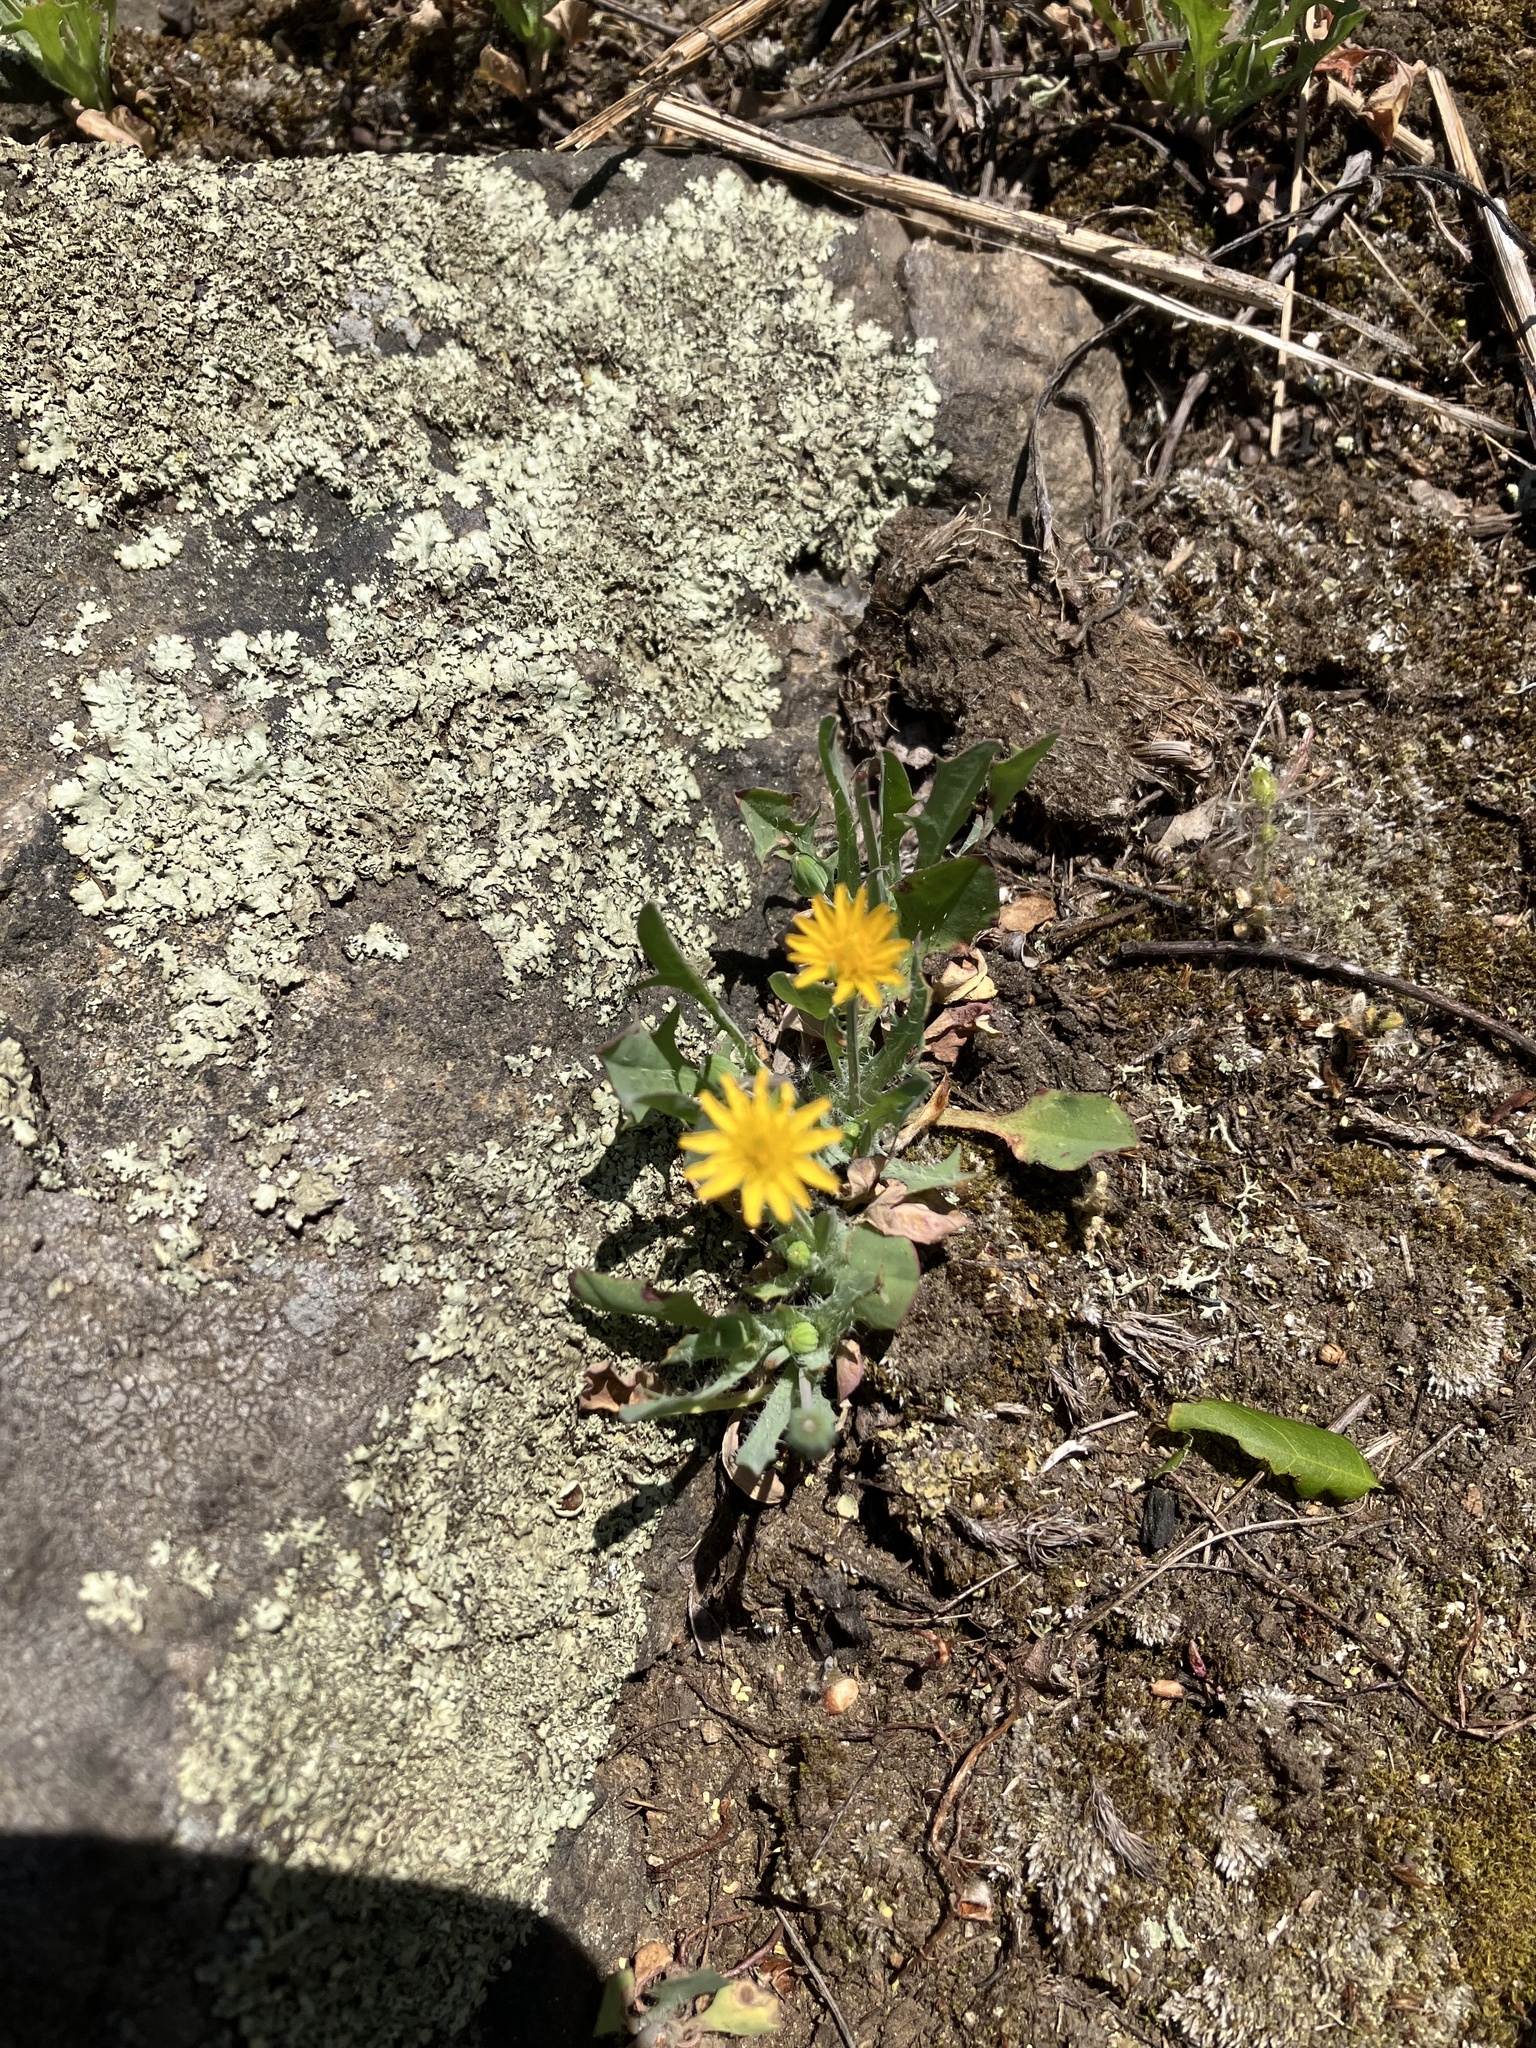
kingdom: Plantae
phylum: Tracheophyta
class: Magnoliopsida
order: Asterales
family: Asteraceae
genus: Krigia
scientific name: Krigia virginica
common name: Virginia dwarf-dandelion
